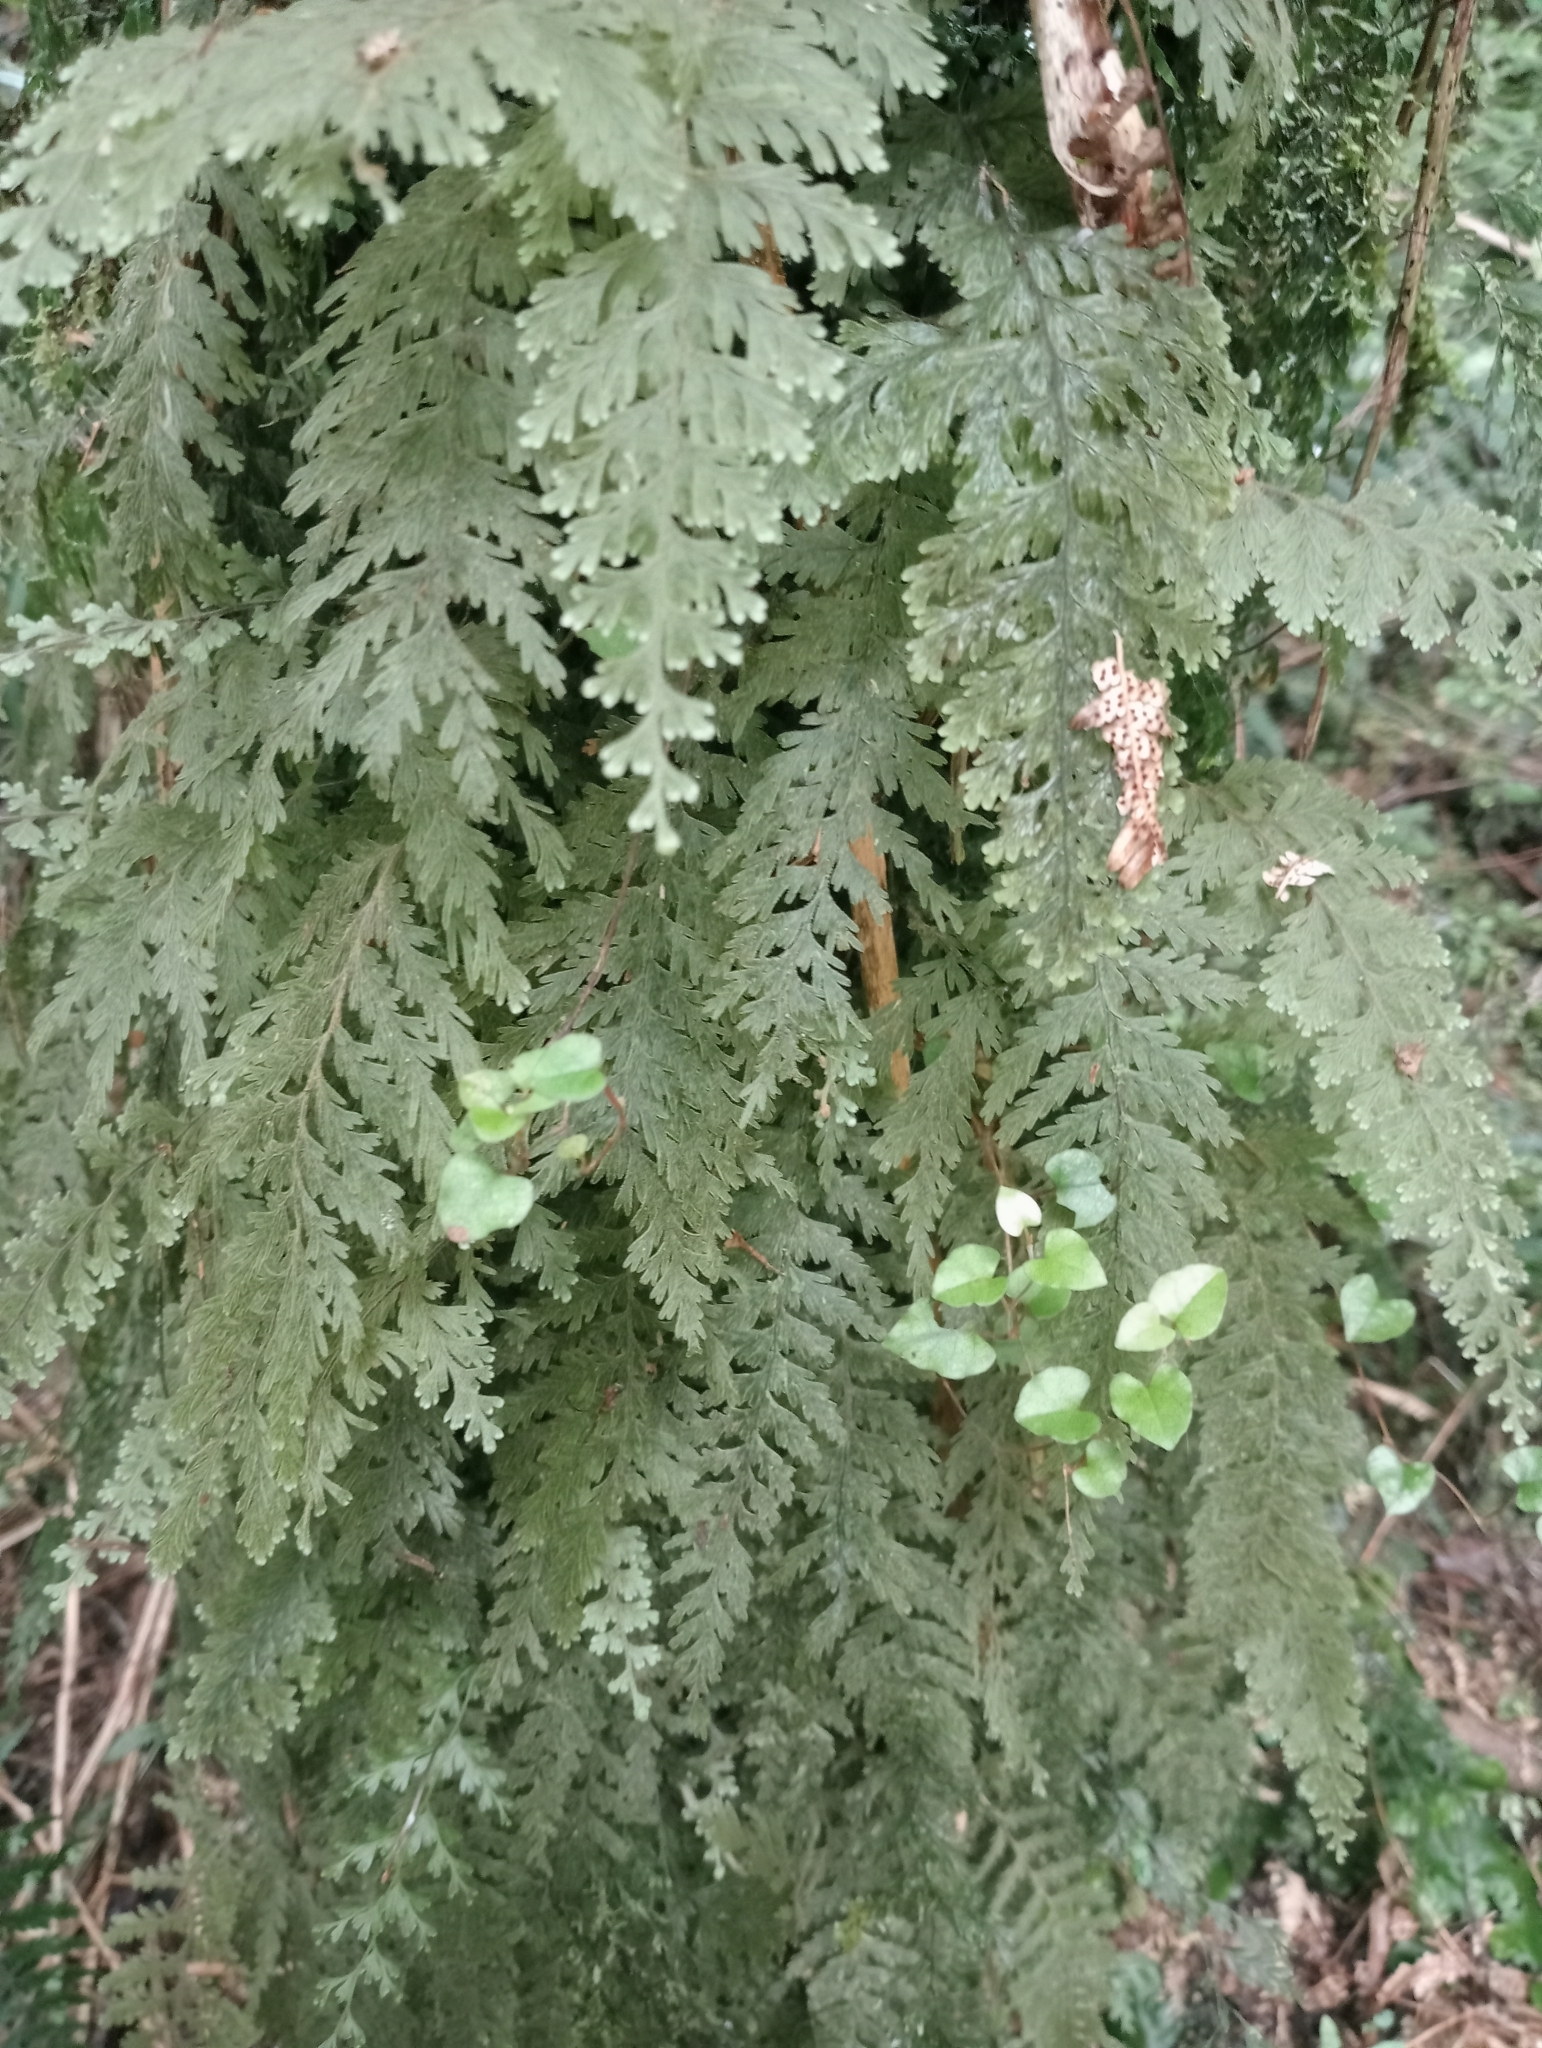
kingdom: Plantae
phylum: Tracheophyta
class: Polypodiopsida
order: Hymenophyllales
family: Hymenophyllaceae
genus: Hymenophyllum
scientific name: Hymenophyllum frankliniae
